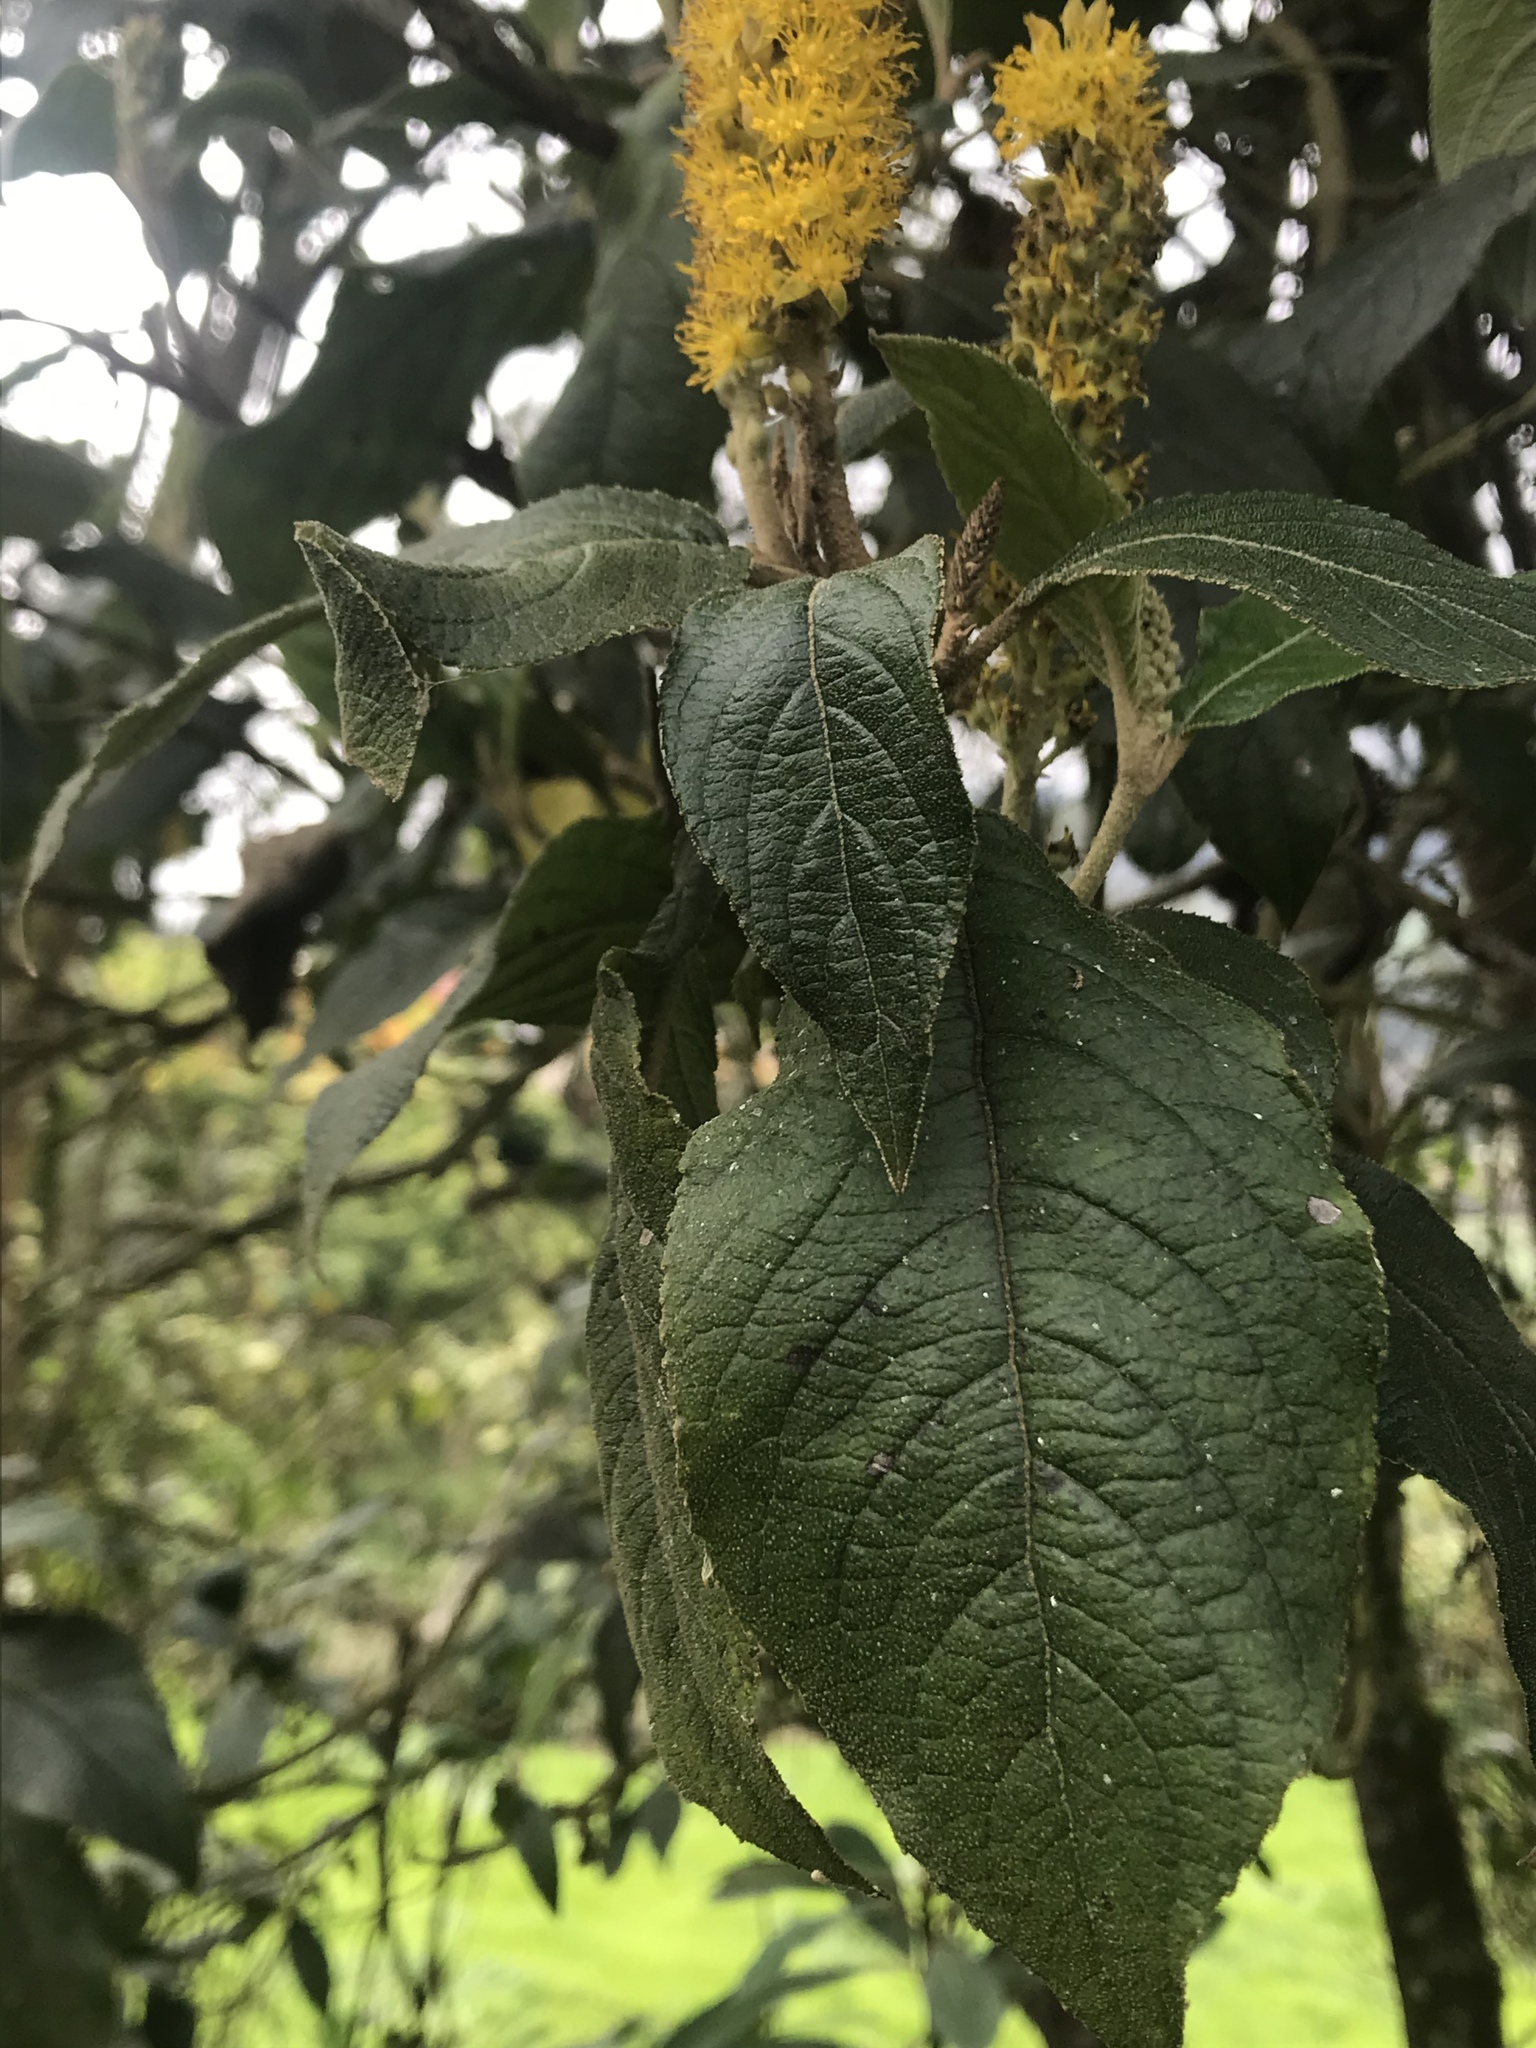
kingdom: Plantae
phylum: Tracheophyta
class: Magnoliopsida
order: Malpighiales
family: Salicaceae
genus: Abatia
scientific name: Abatia parviflora
